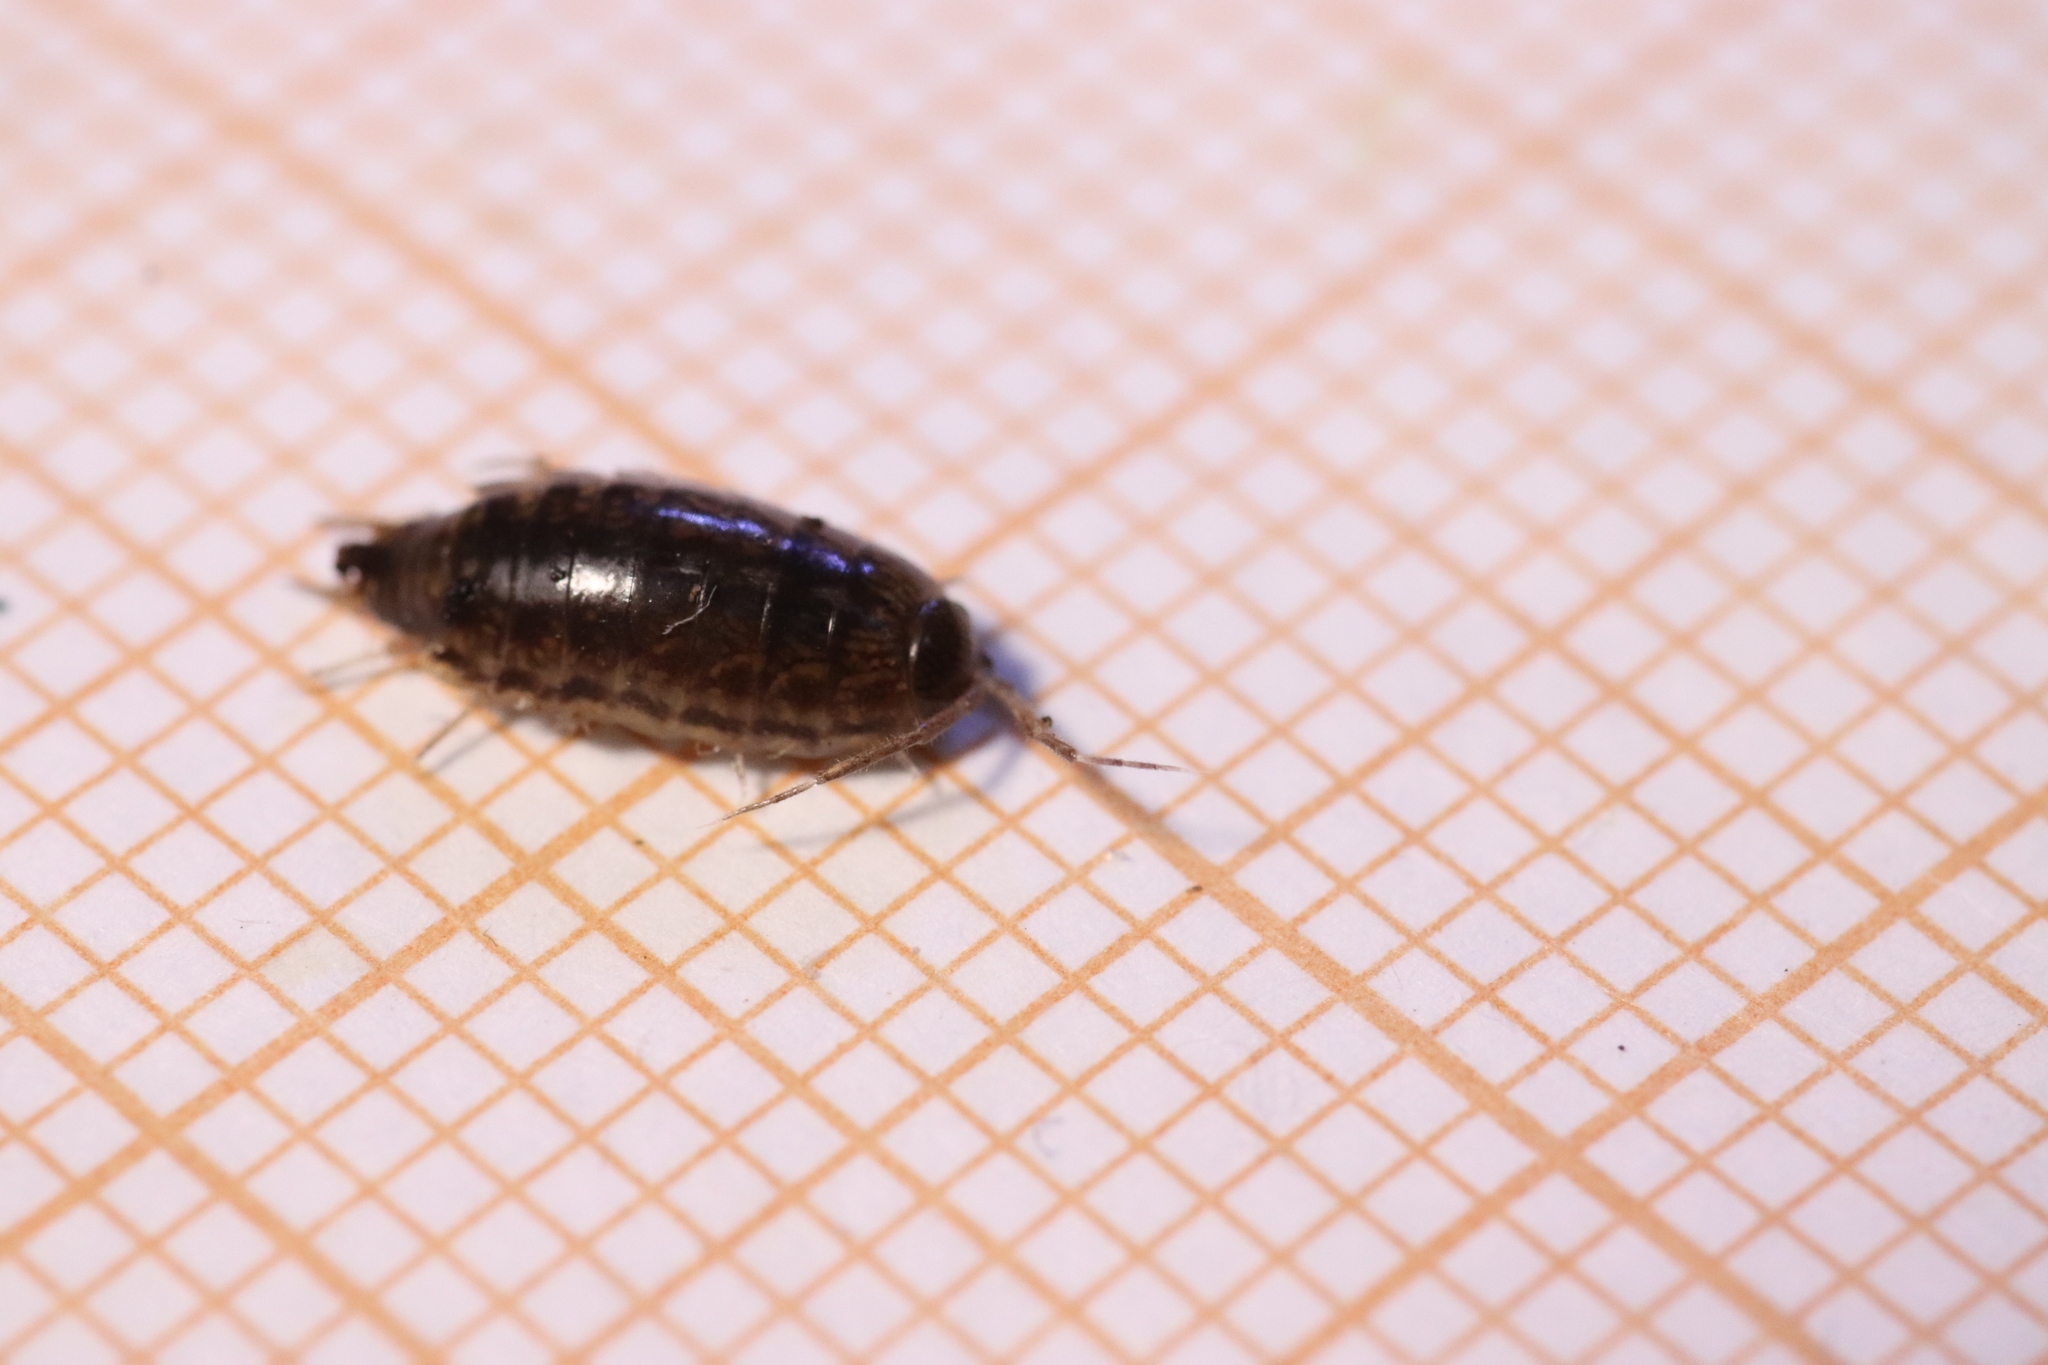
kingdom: Animalia
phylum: Arthropoda
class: Malacostraca
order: Isopoda
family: Philosciidae
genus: Chaetophiloscia
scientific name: Chaetophiloscia elongata
